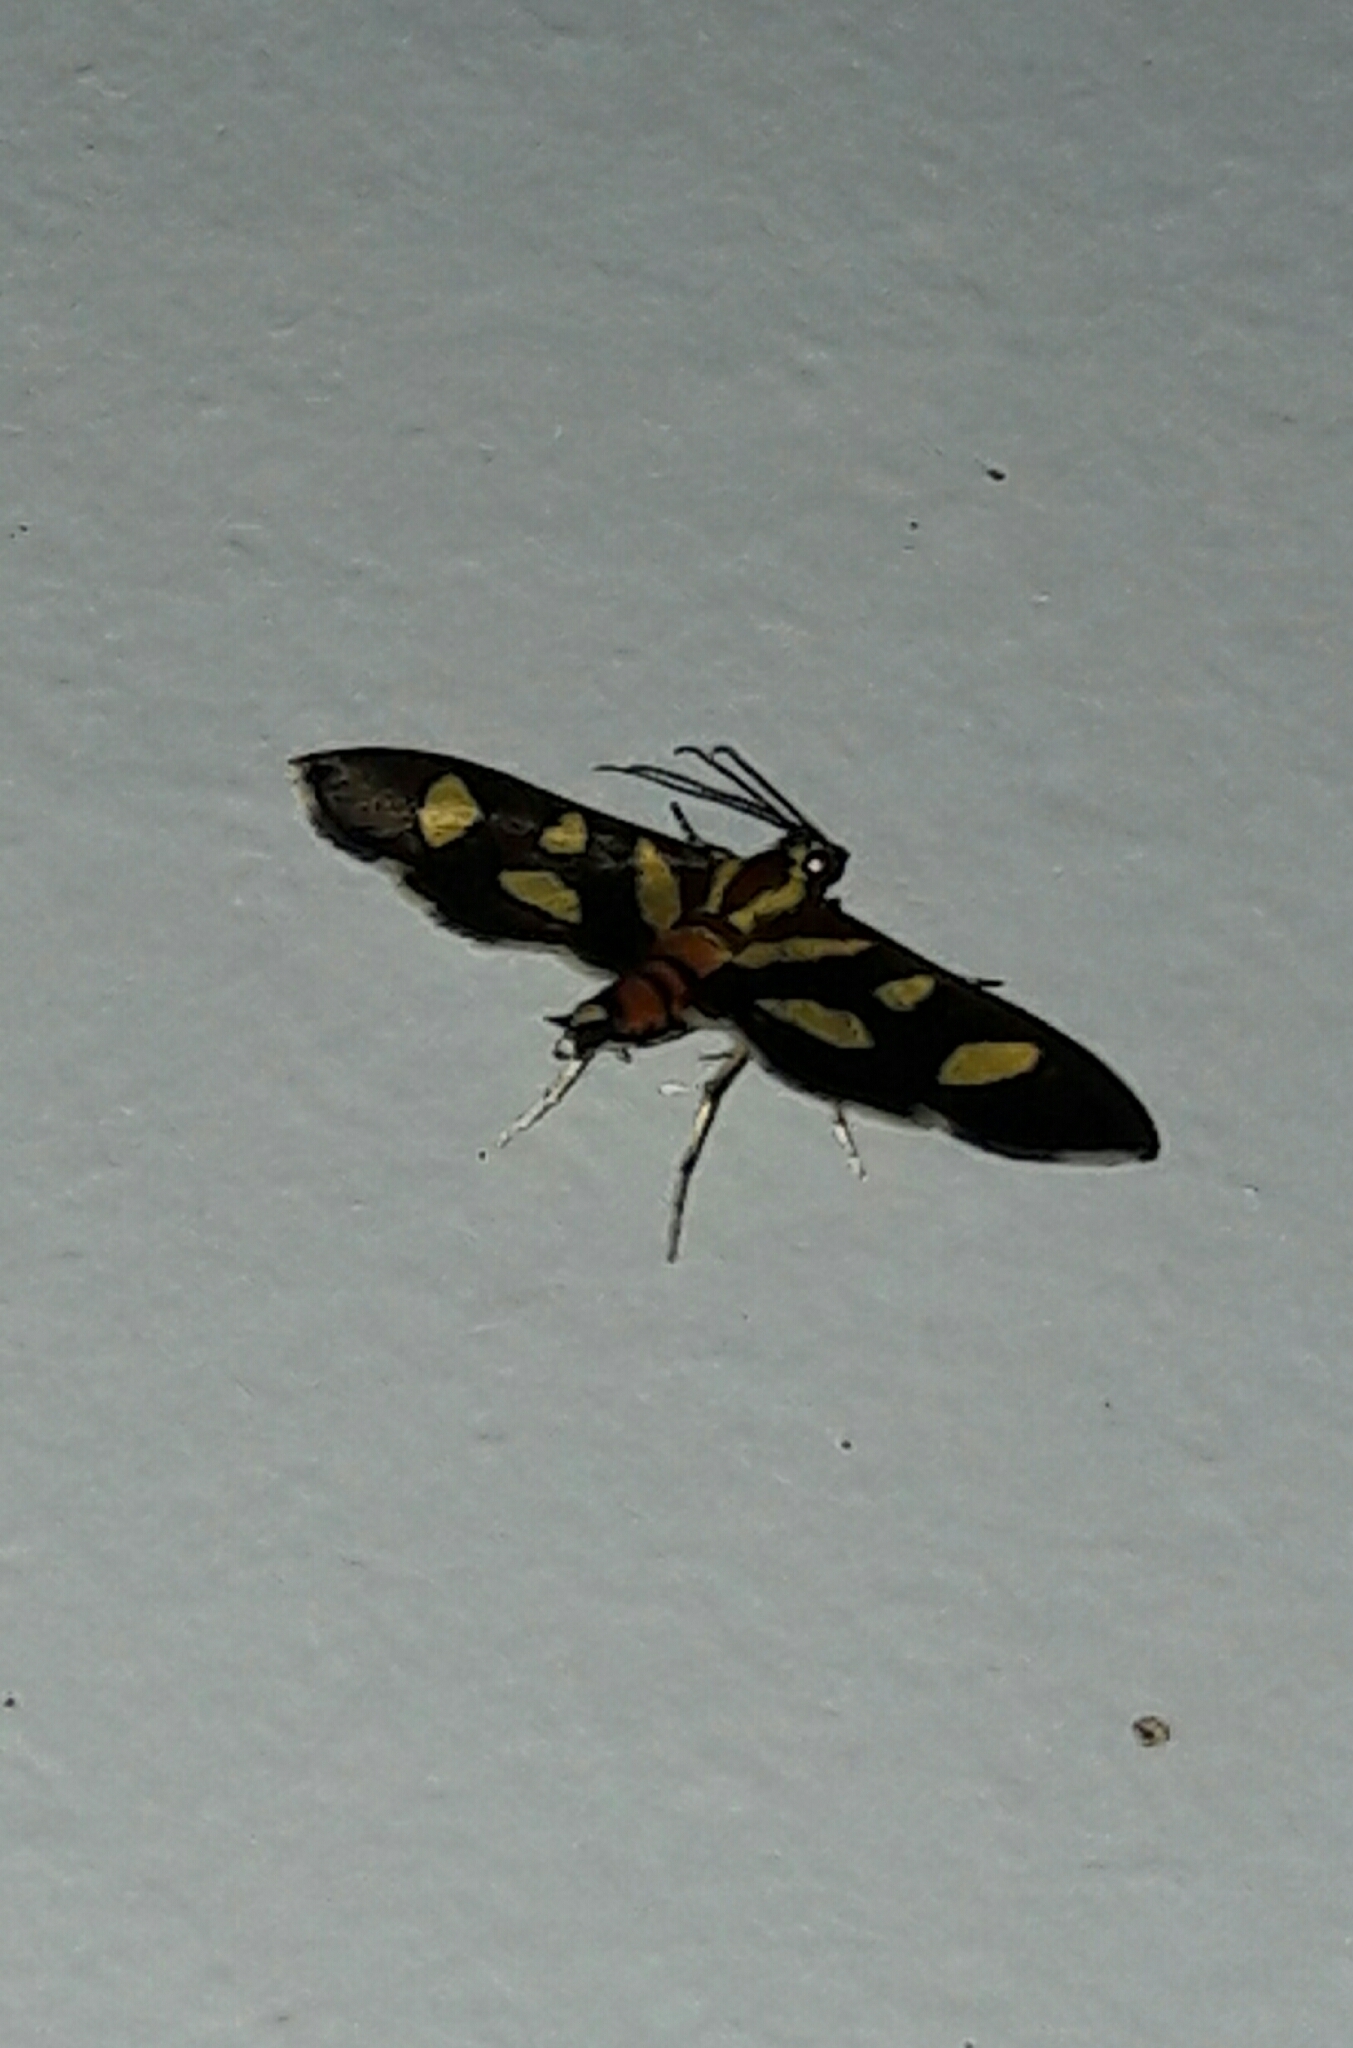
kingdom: Animalia
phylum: Arthropoda
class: Insecta
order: Lepidoptera
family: Crambidae
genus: Syngamia
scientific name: Syngamia florella
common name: Orange-spotted flower moth
